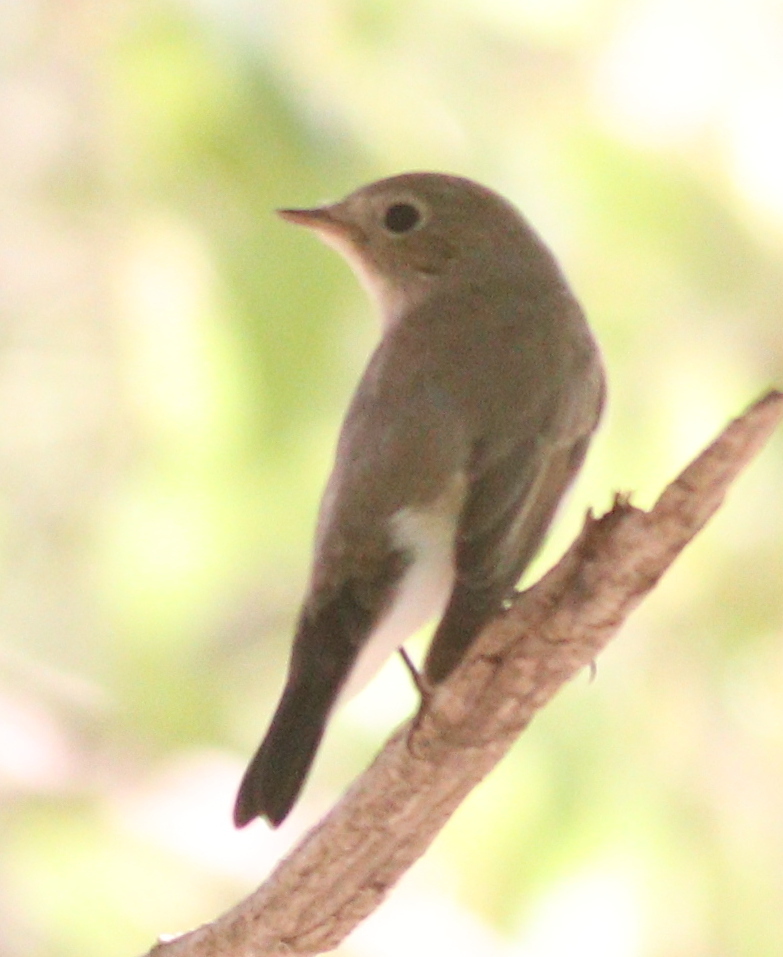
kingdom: Animalia
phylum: Chordata
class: Aves
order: Passeriformes
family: Muscicapidae
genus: Ficedula
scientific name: Ficedula parva
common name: Red-breasted flycatcher
